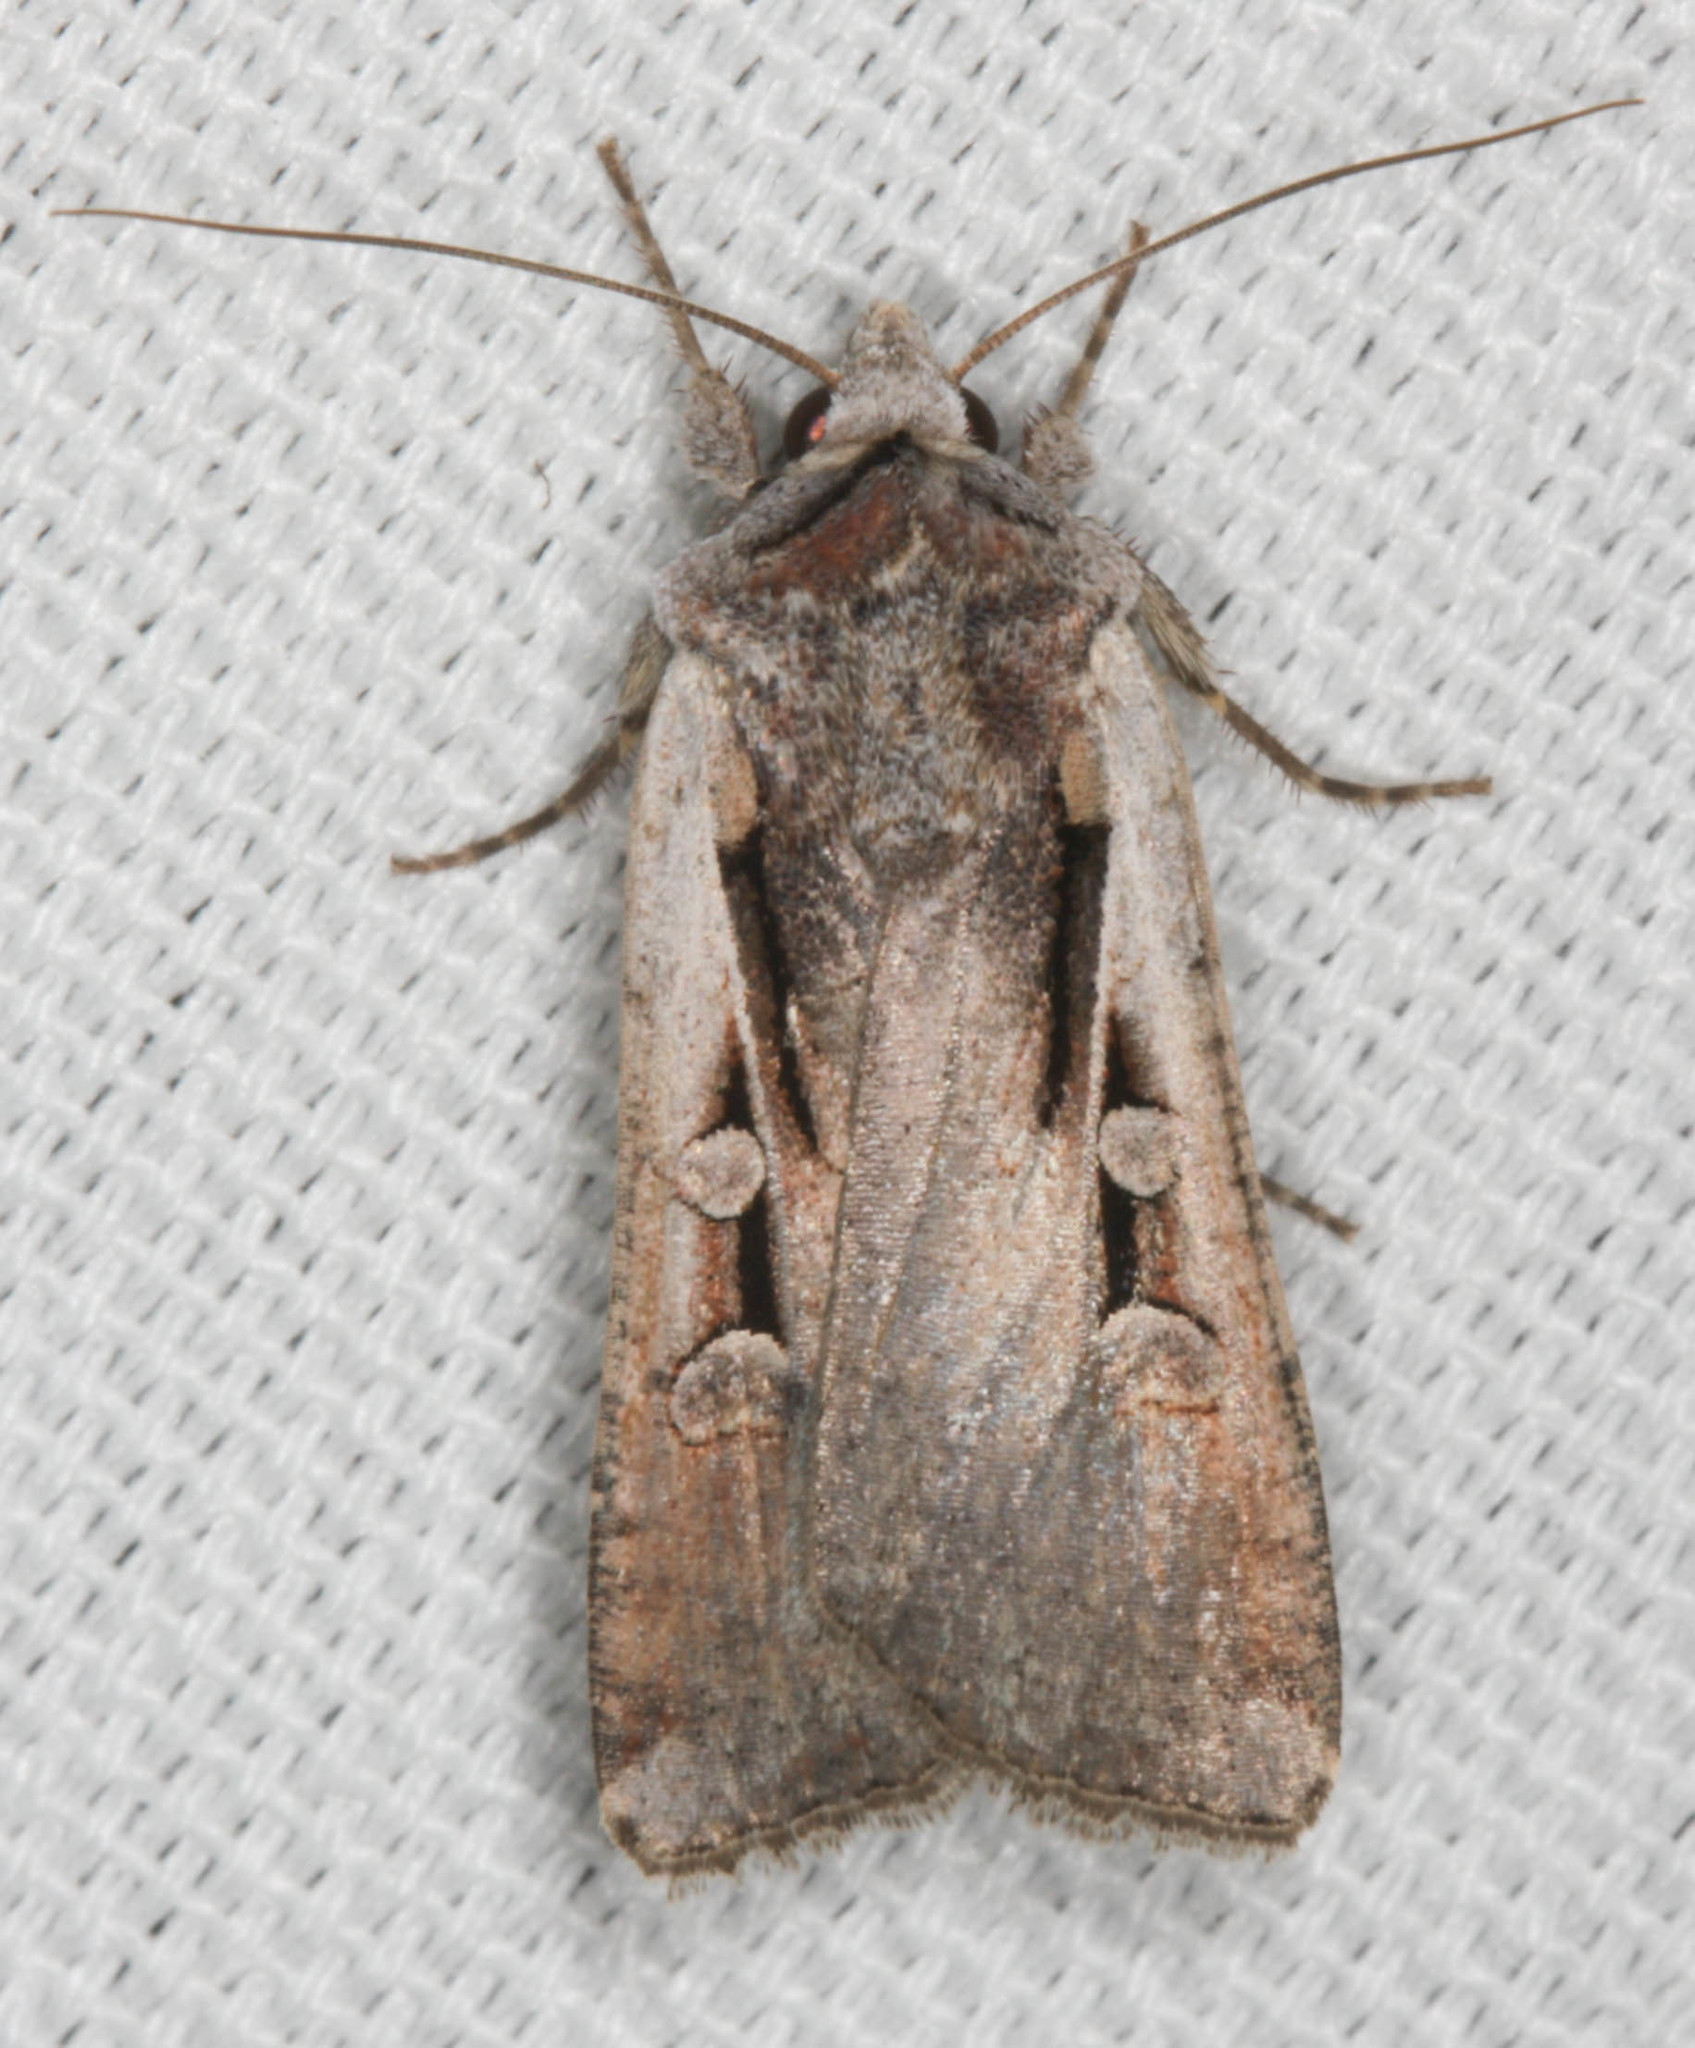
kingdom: Animalia
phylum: Arthropoda
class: Insecta
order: Lepidoptera
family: Noctuidae
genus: Hemieuxoa
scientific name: Hemieuxoa rudens
